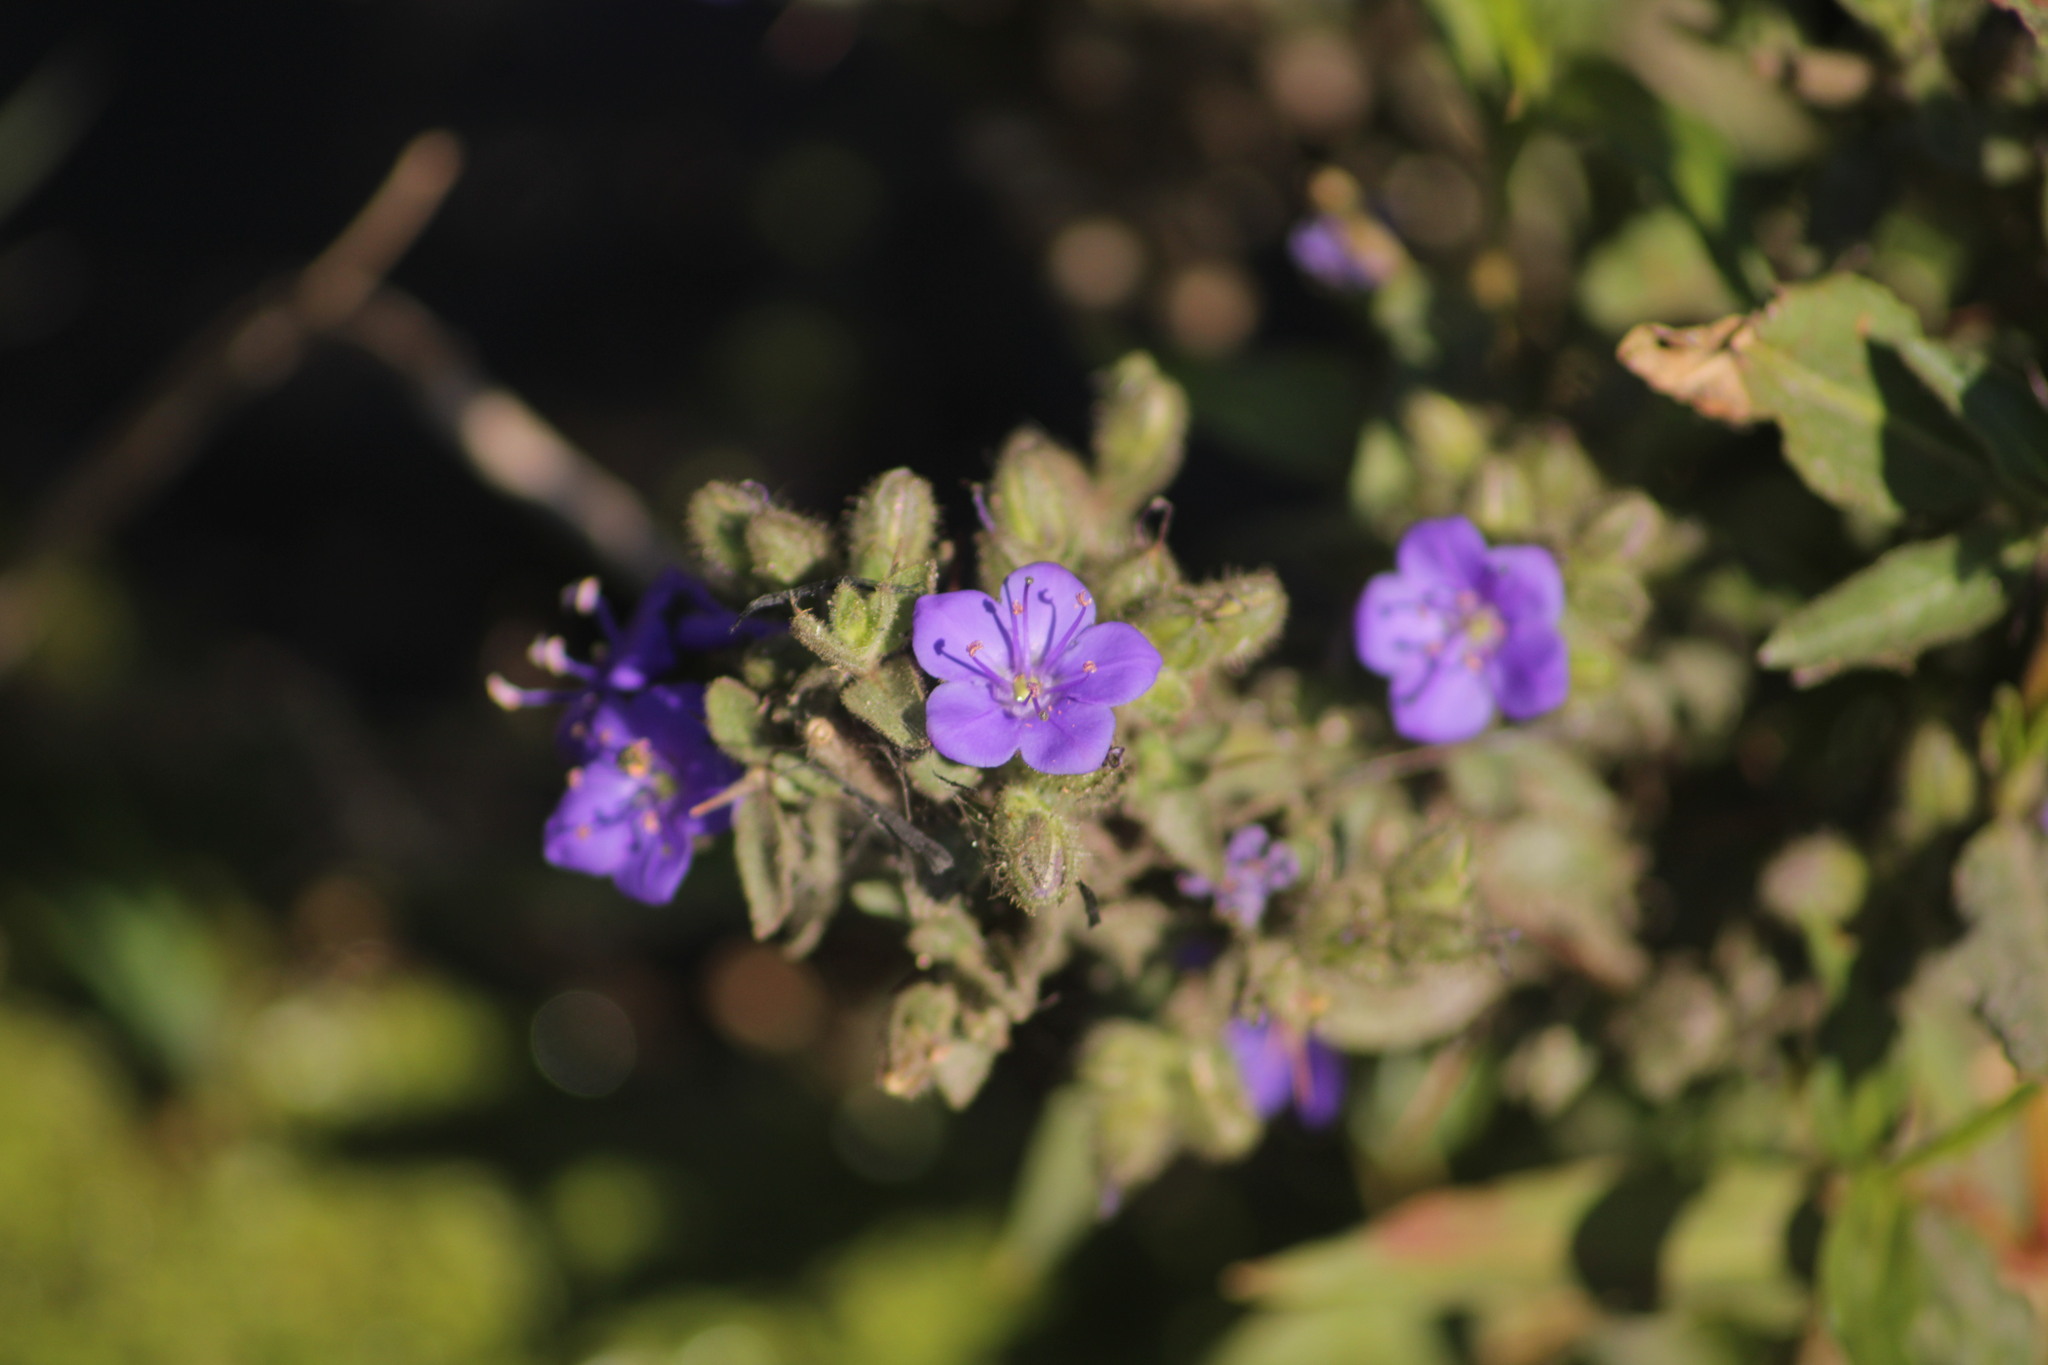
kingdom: Plantae
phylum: Tracheophyta
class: Magnoliopsida
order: Solanales
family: Hydroleaceae
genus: Hydrolea
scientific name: Hydrolea spinosa
